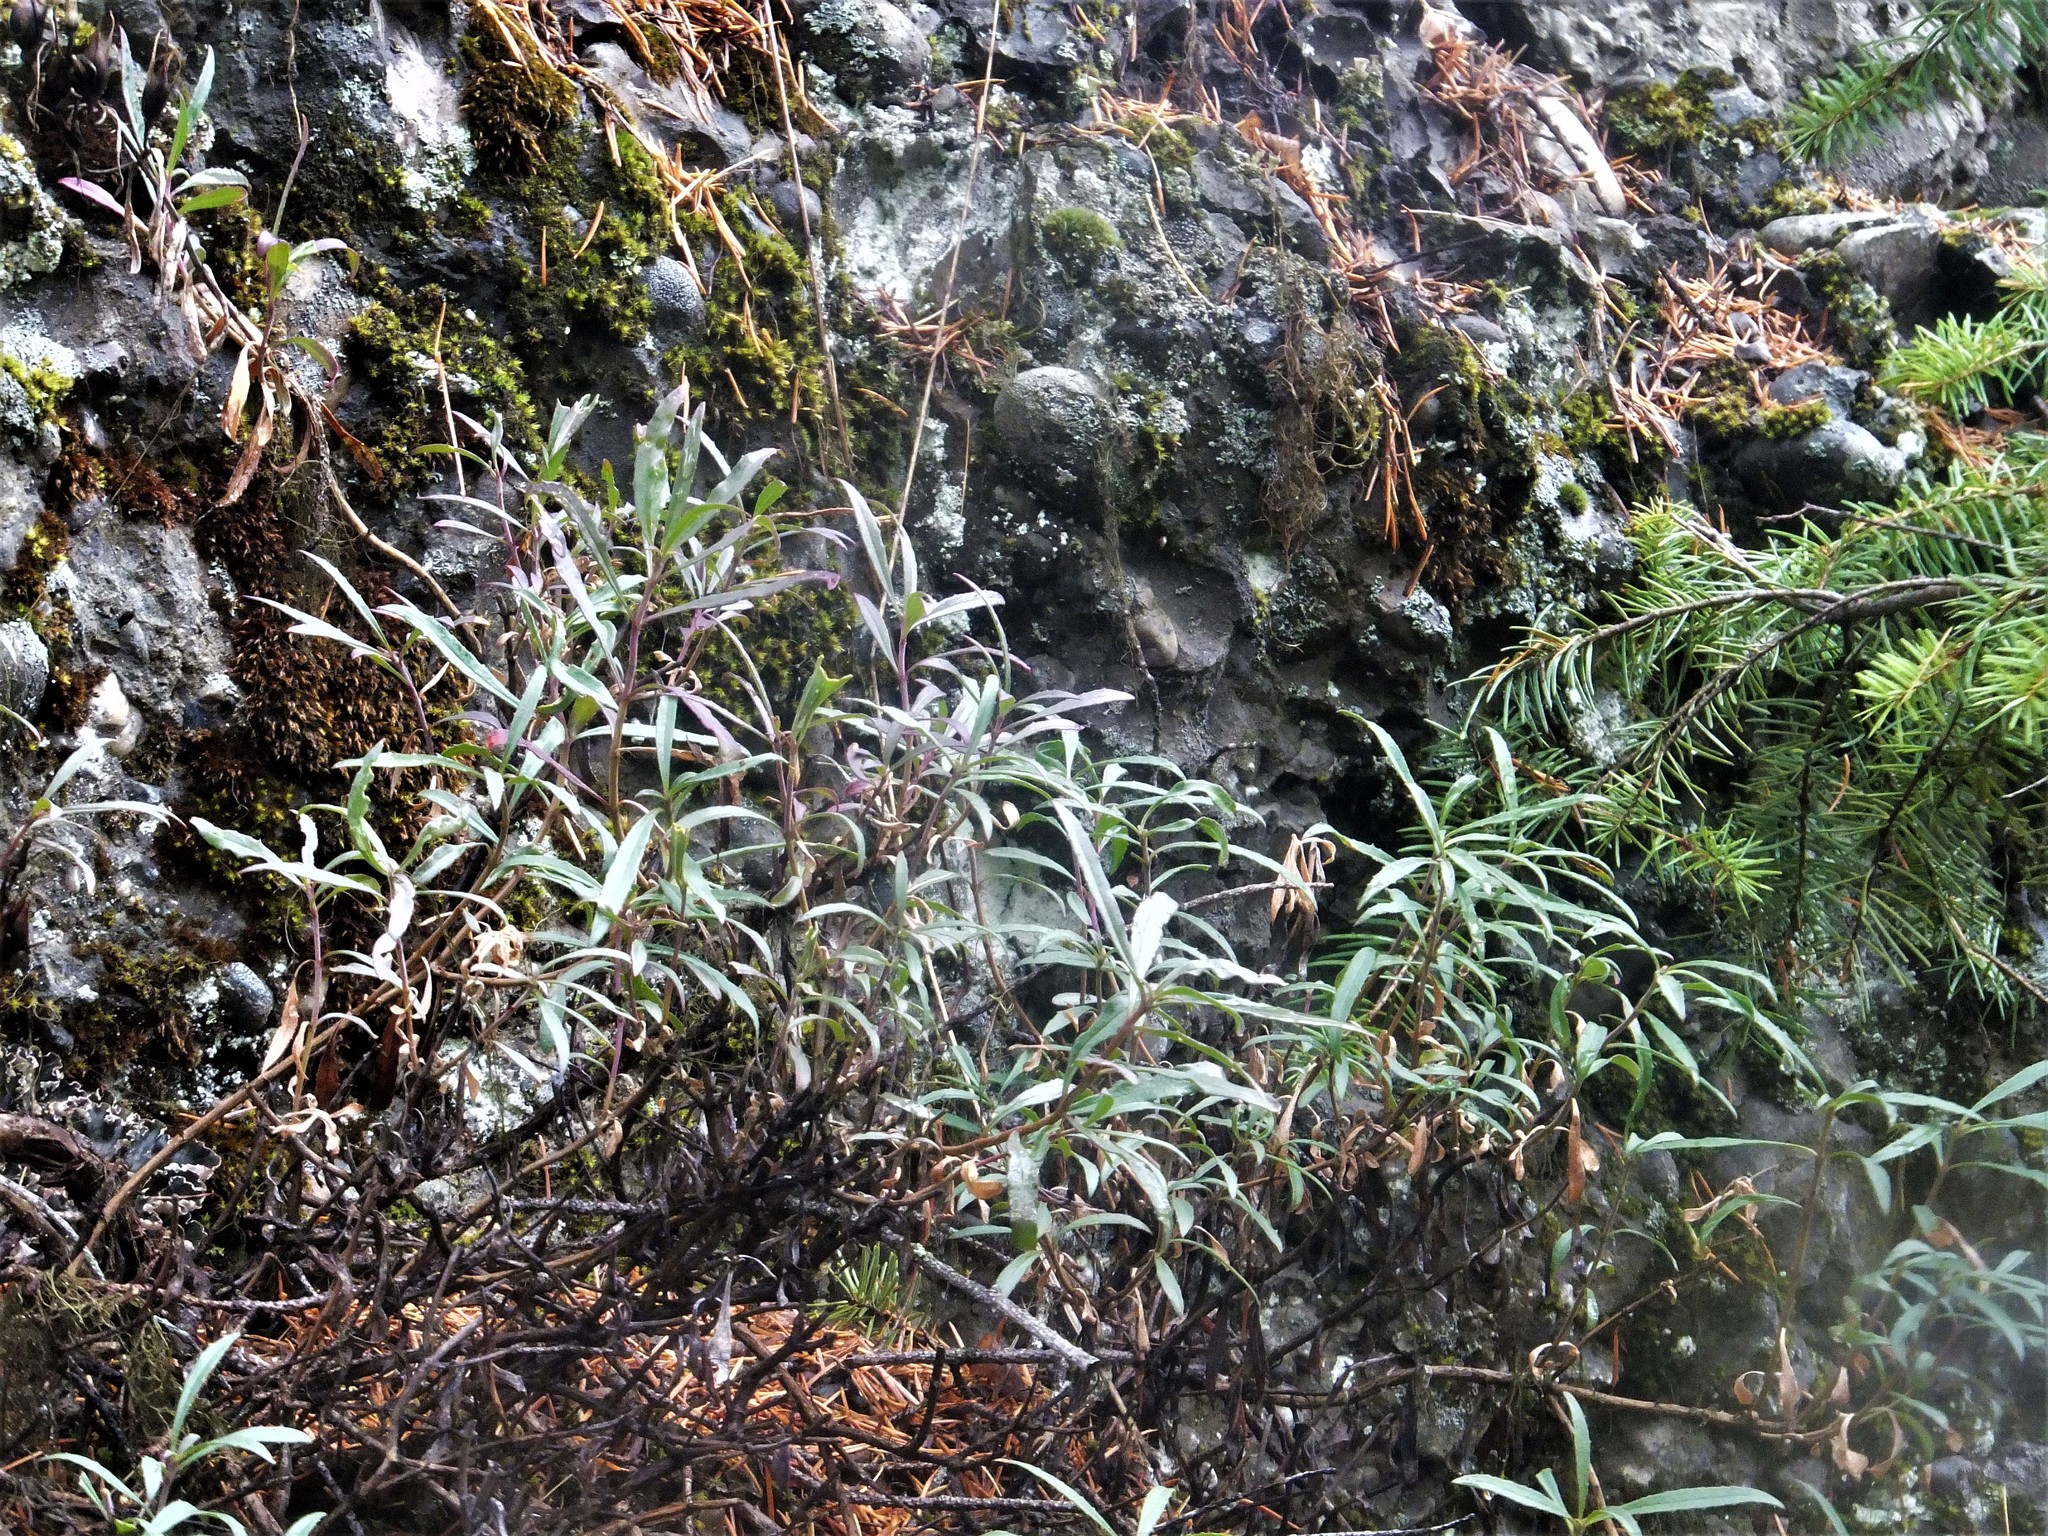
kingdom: Plantae
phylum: Tracheophyta
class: Magnoliopsida
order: Lamiales
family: Plantaginaceae
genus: Penstemon
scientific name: Penstemon fruticosus
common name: Bush penstemon
